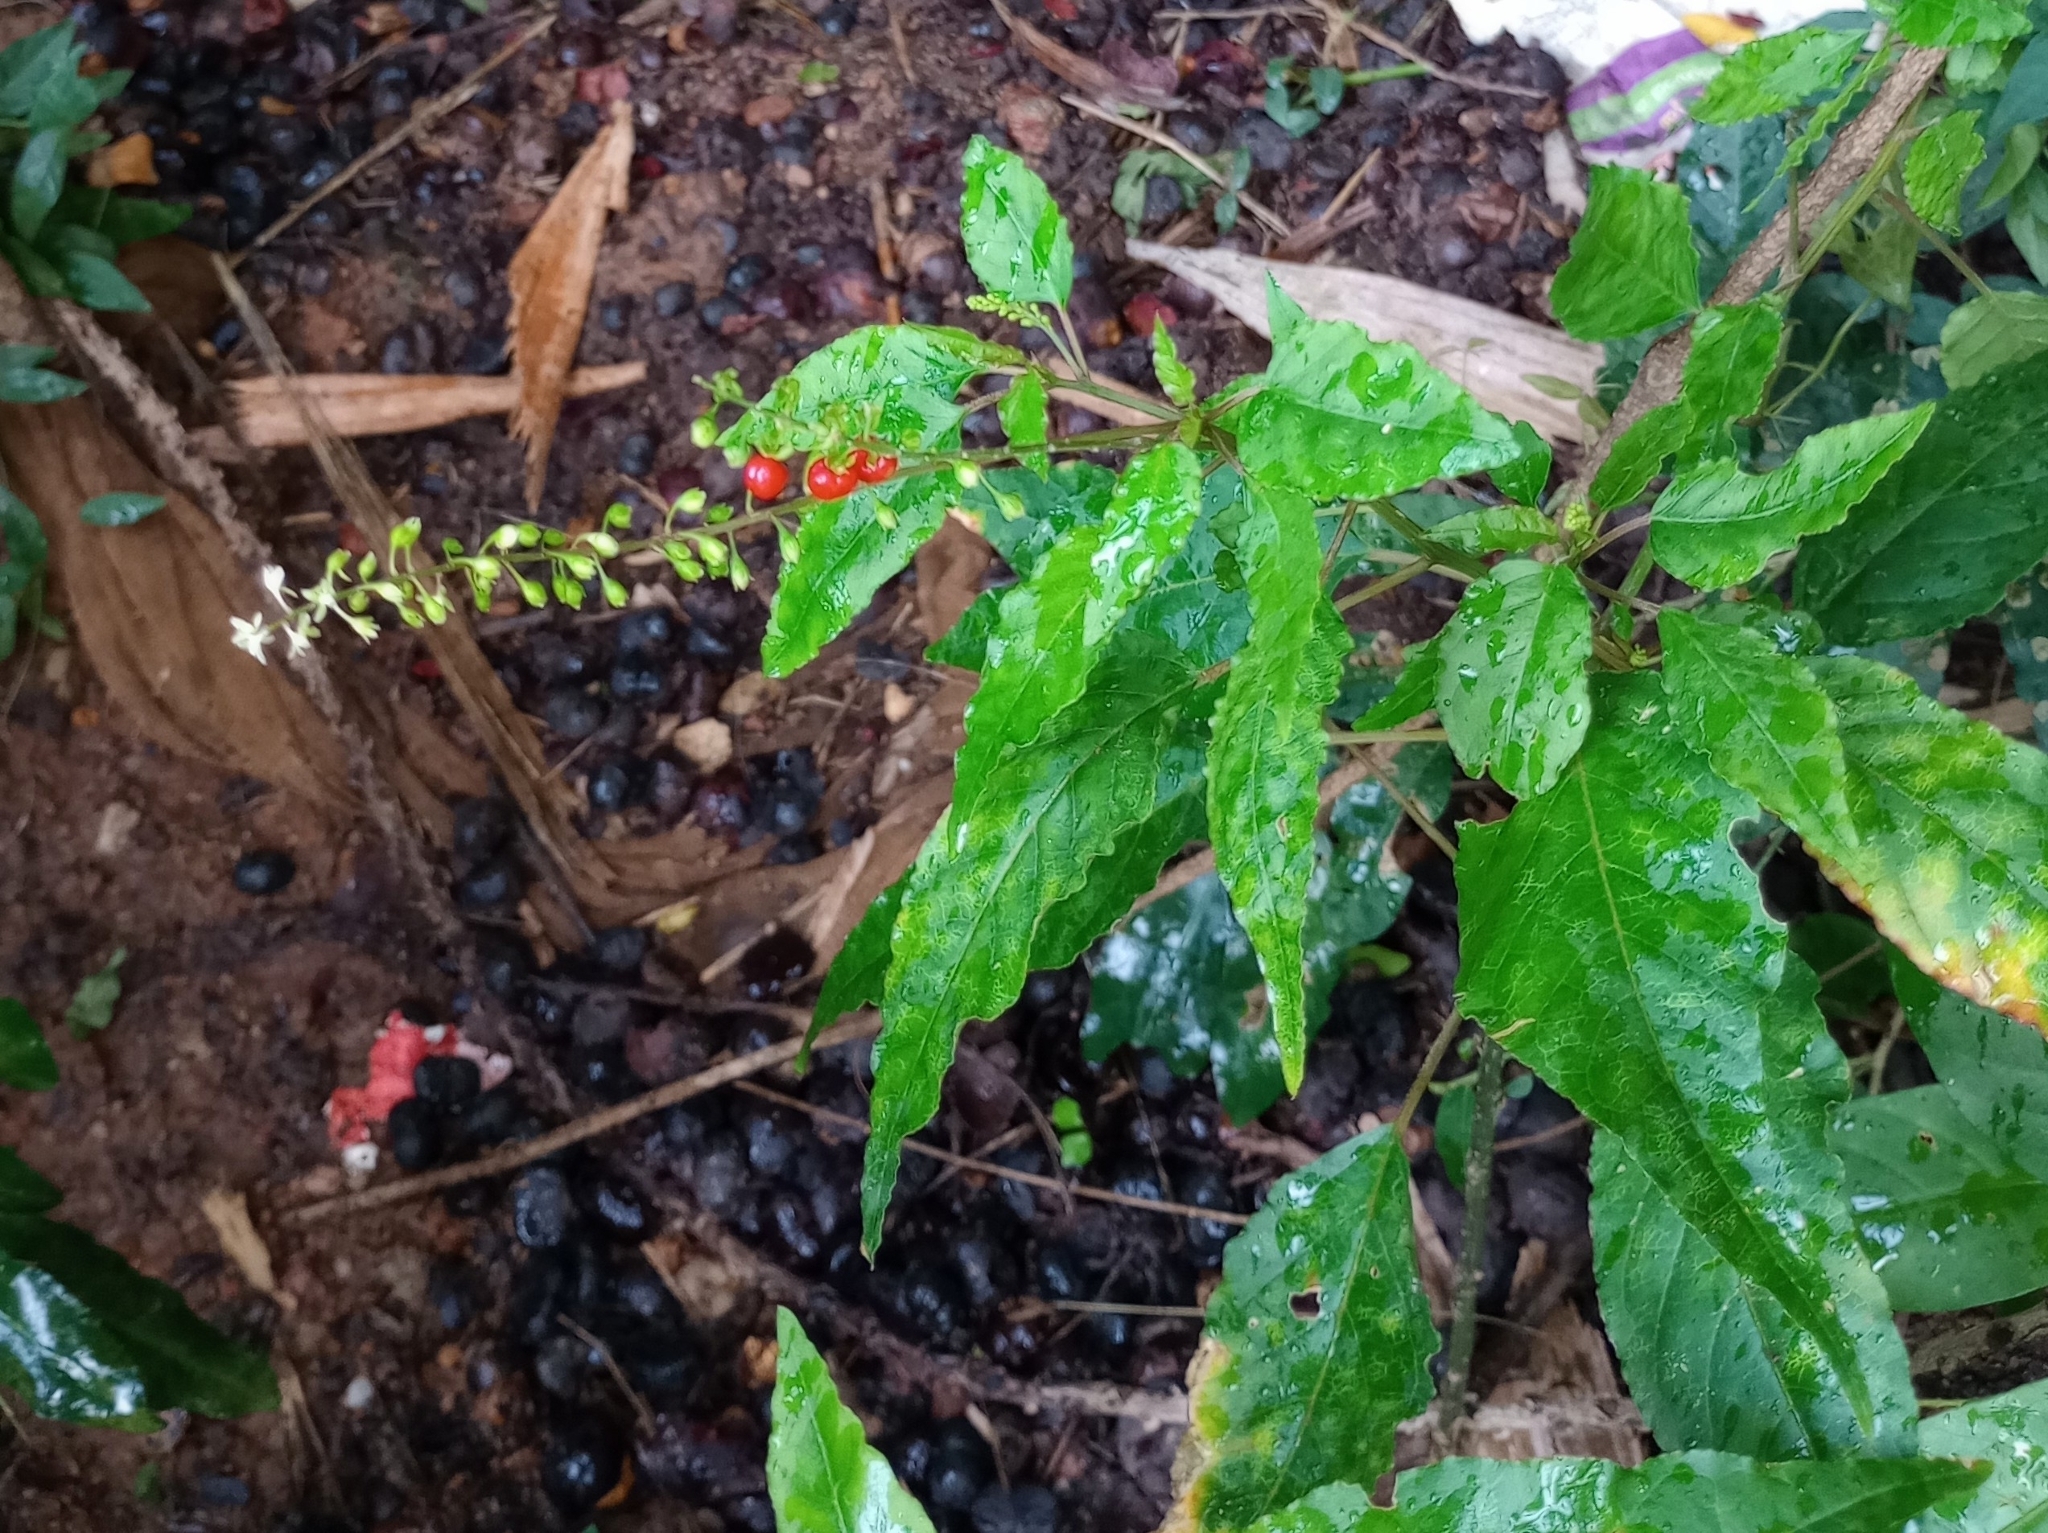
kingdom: Plantae
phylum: Tracheophyta
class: Magnoliopsida
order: Caryophyllales
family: Phytolaccaceae
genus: Rivina
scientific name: Rivina humilis
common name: Rougeplant
